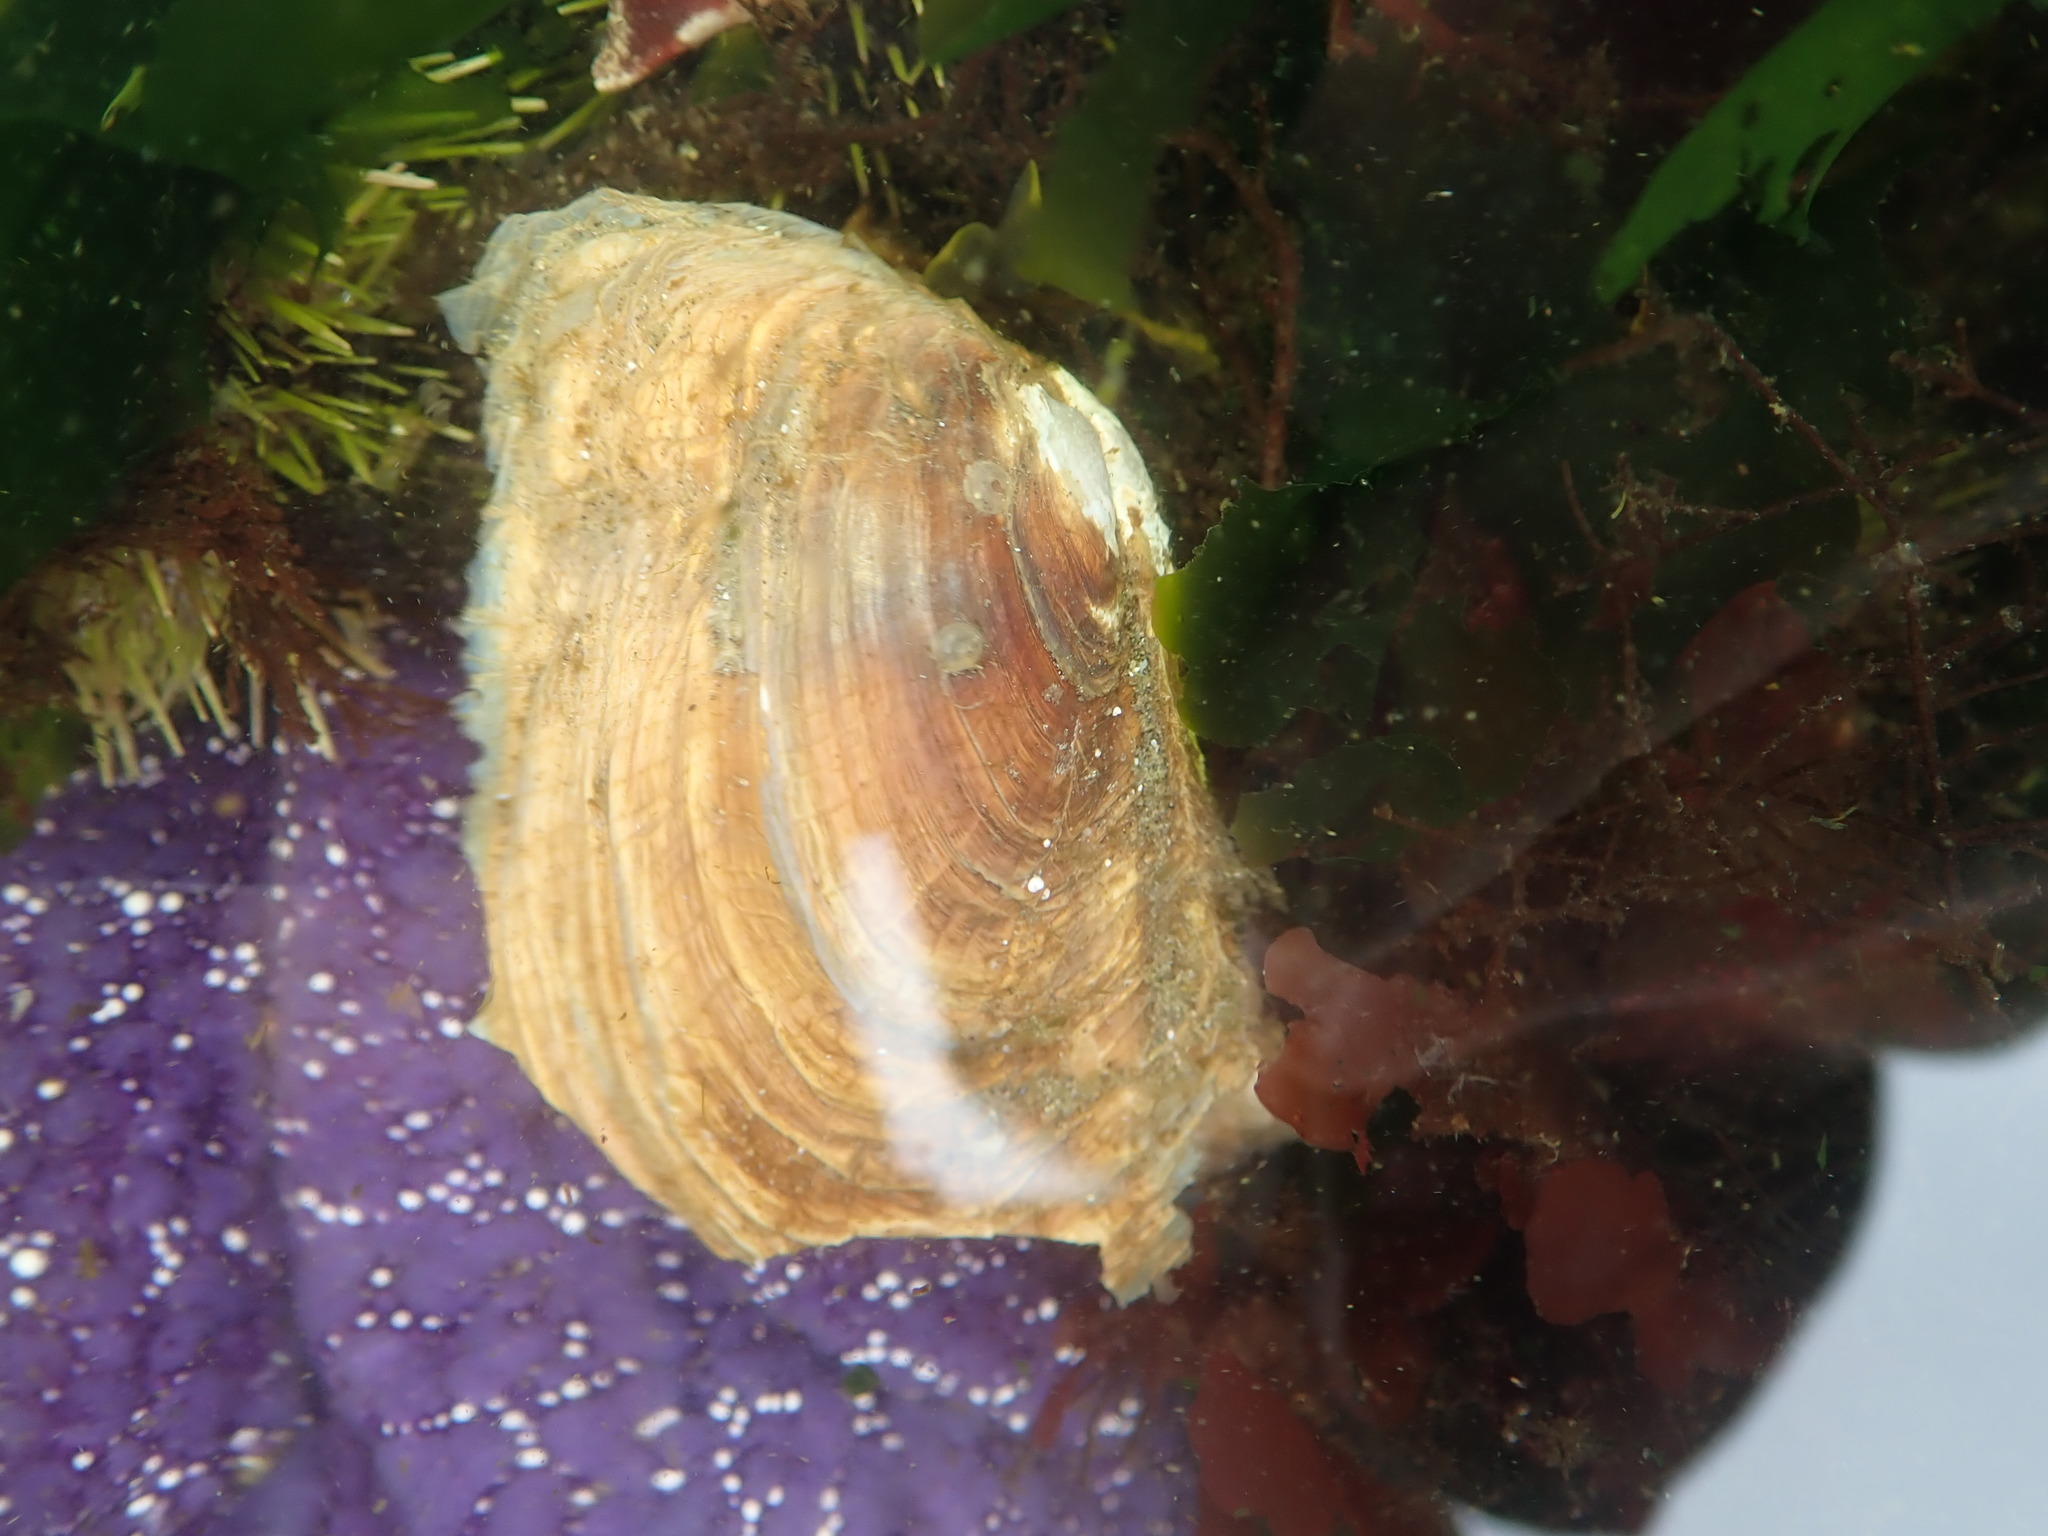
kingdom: Animalia
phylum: Mollusca
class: Bivalvia
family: Lyonsiidae
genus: Entodesma
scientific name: Entodesma navicula
